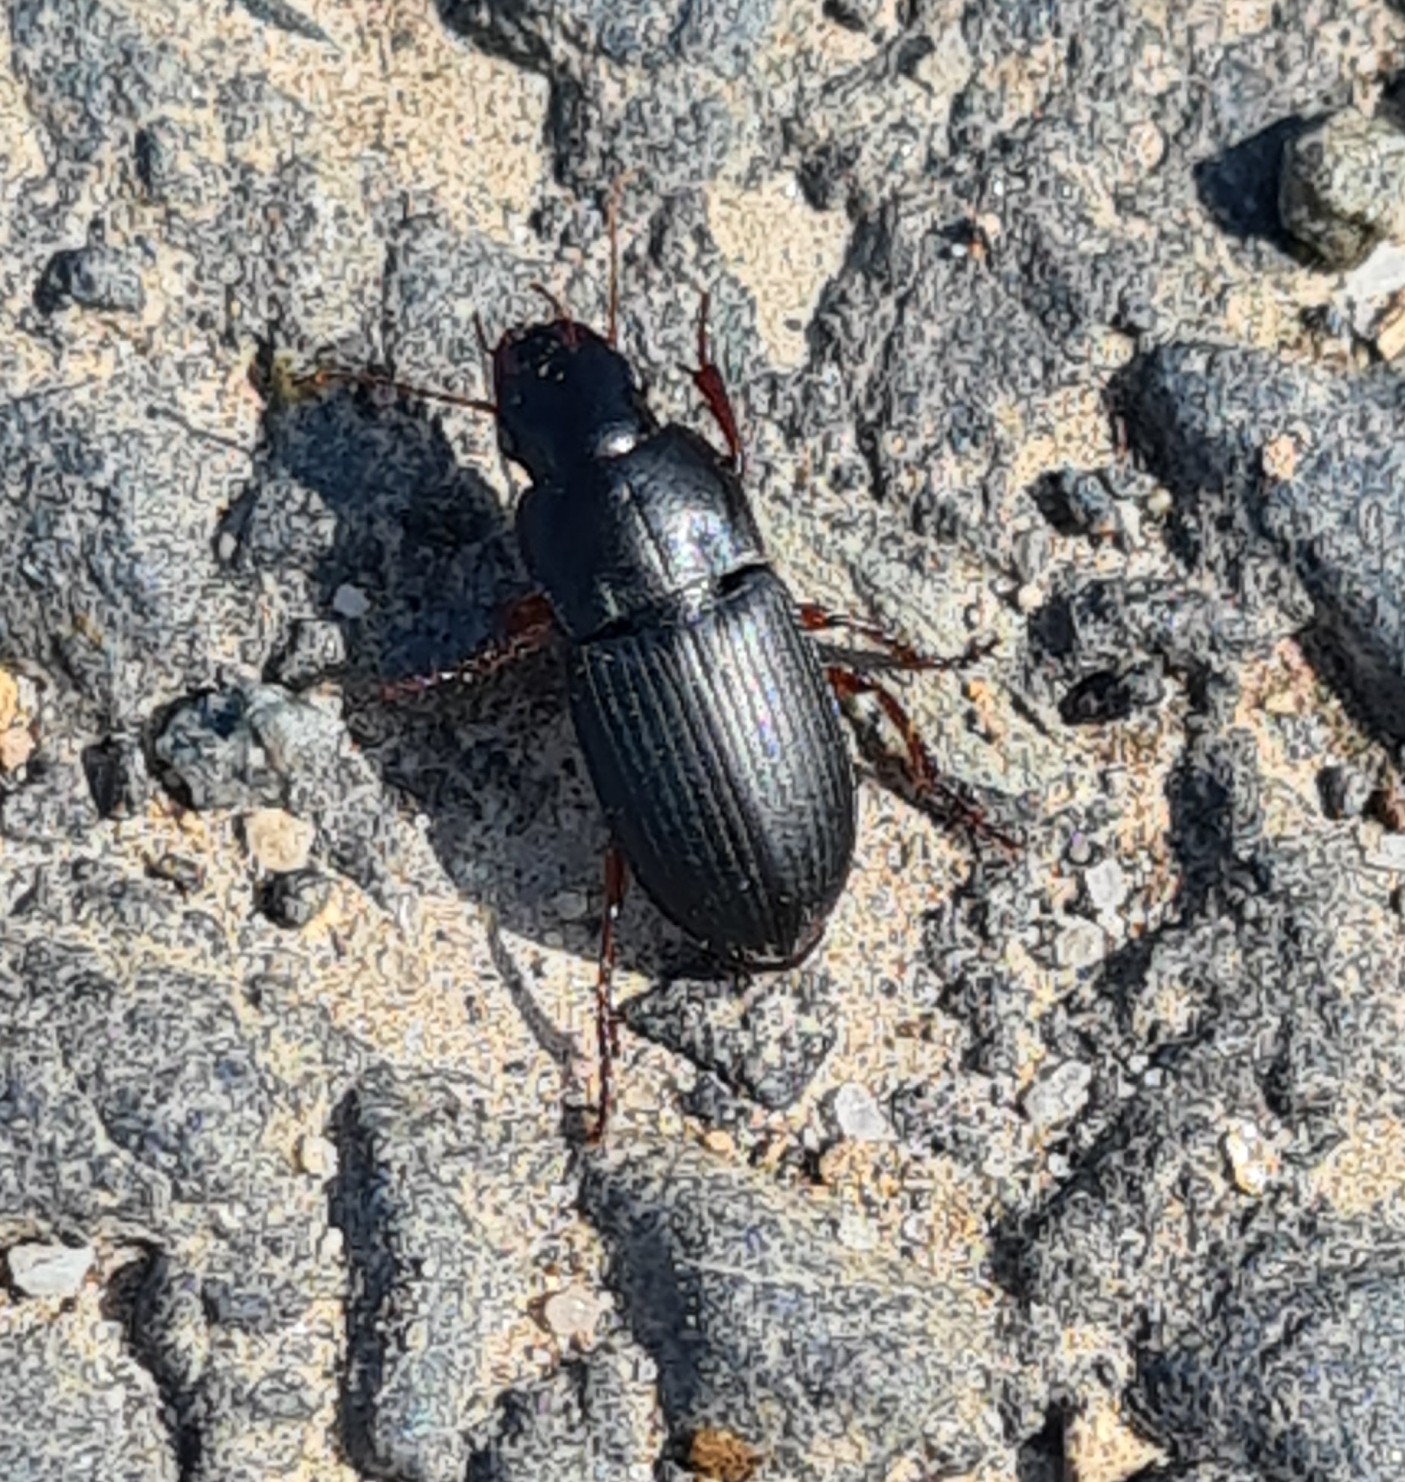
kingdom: Animalia
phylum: Arthropoda
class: Insecta
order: Coleoptera
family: Carabidae
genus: Harpalus
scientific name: Harpalus rubripes
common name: Red-legged harp ground beetle
